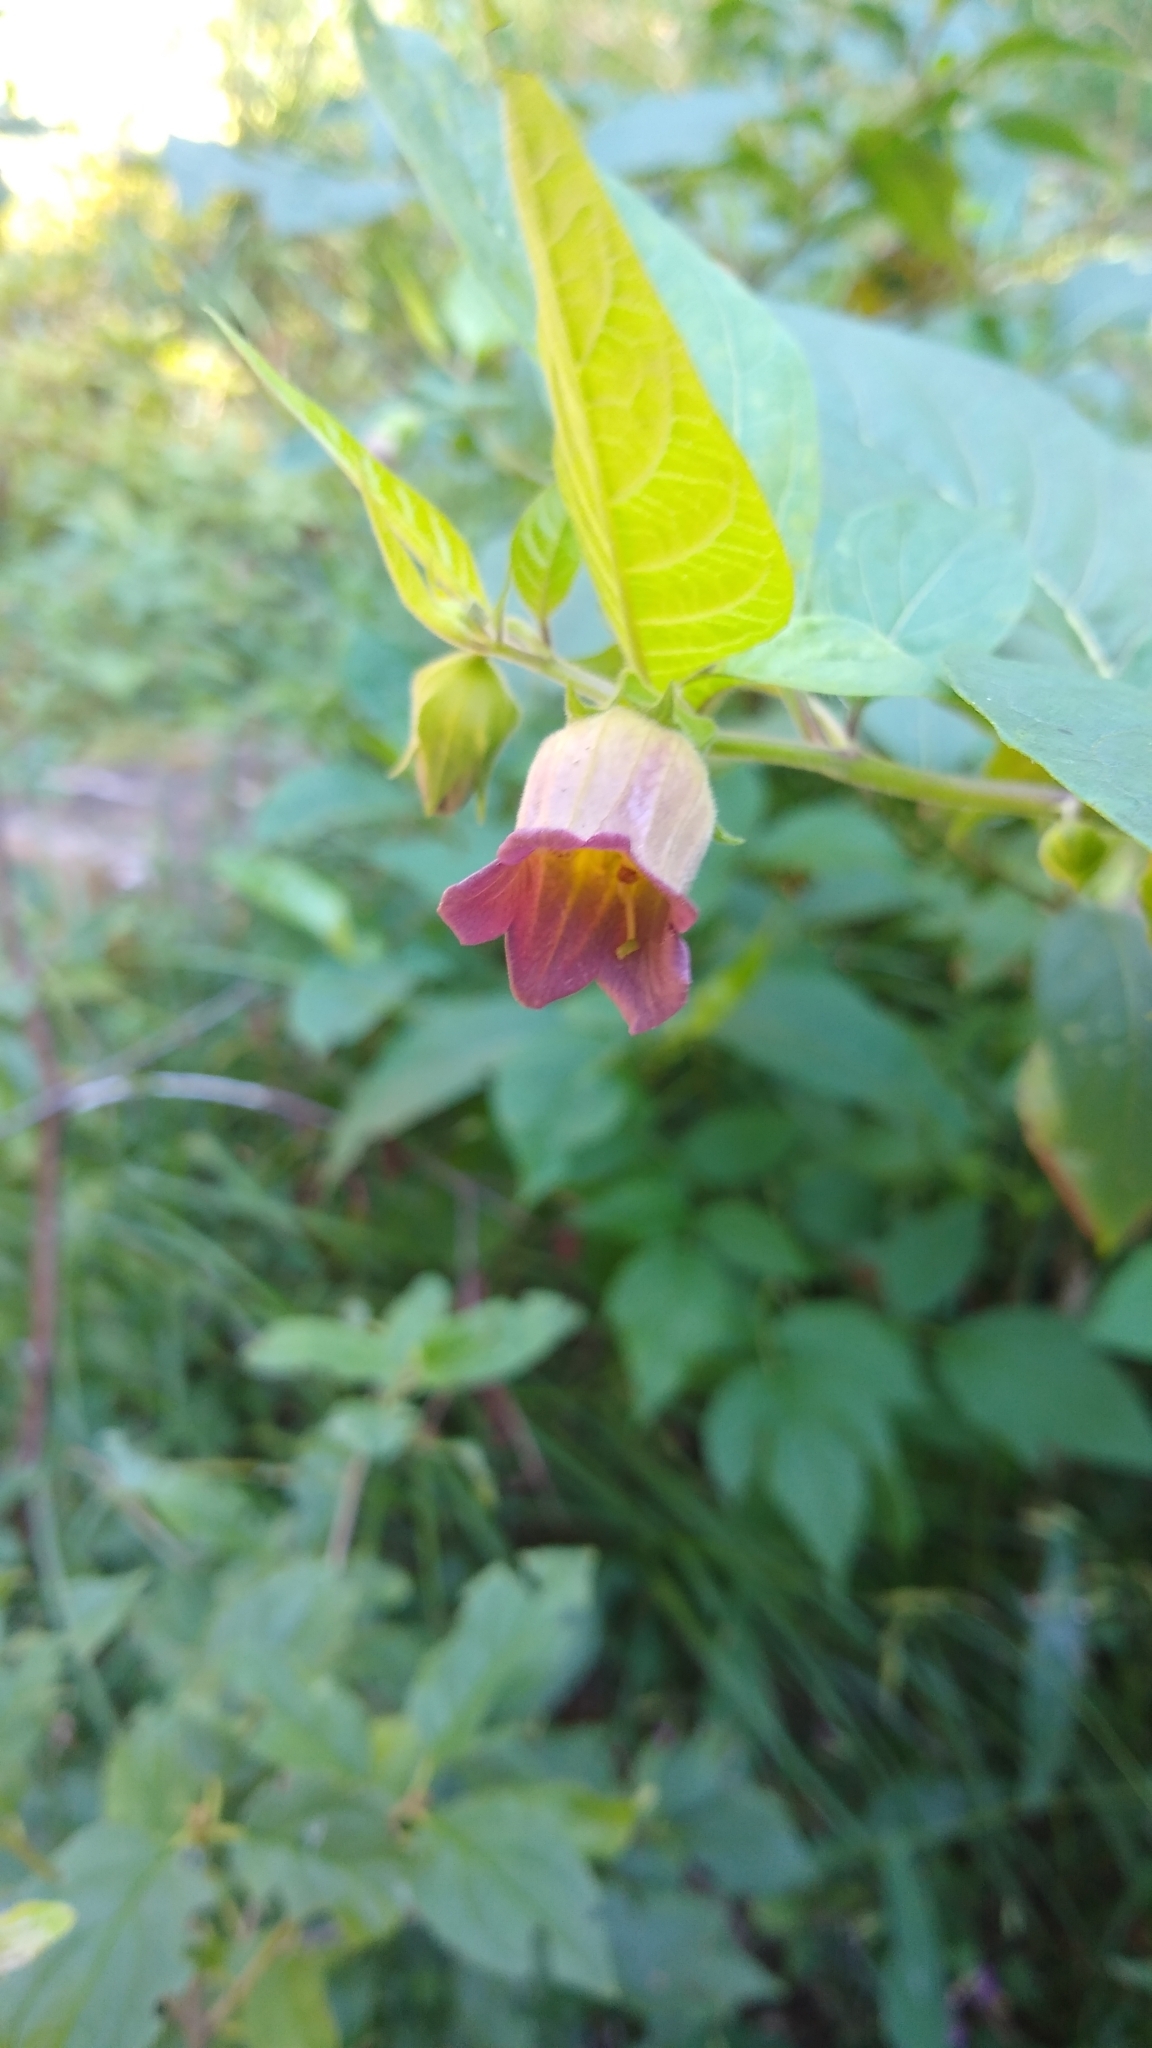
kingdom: Plantae
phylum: Tracheophyta
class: Magnoliopsida
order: Solanales
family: Solanaceae
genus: Atropa
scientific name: Atropa belladonna
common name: Deadly nightshade
